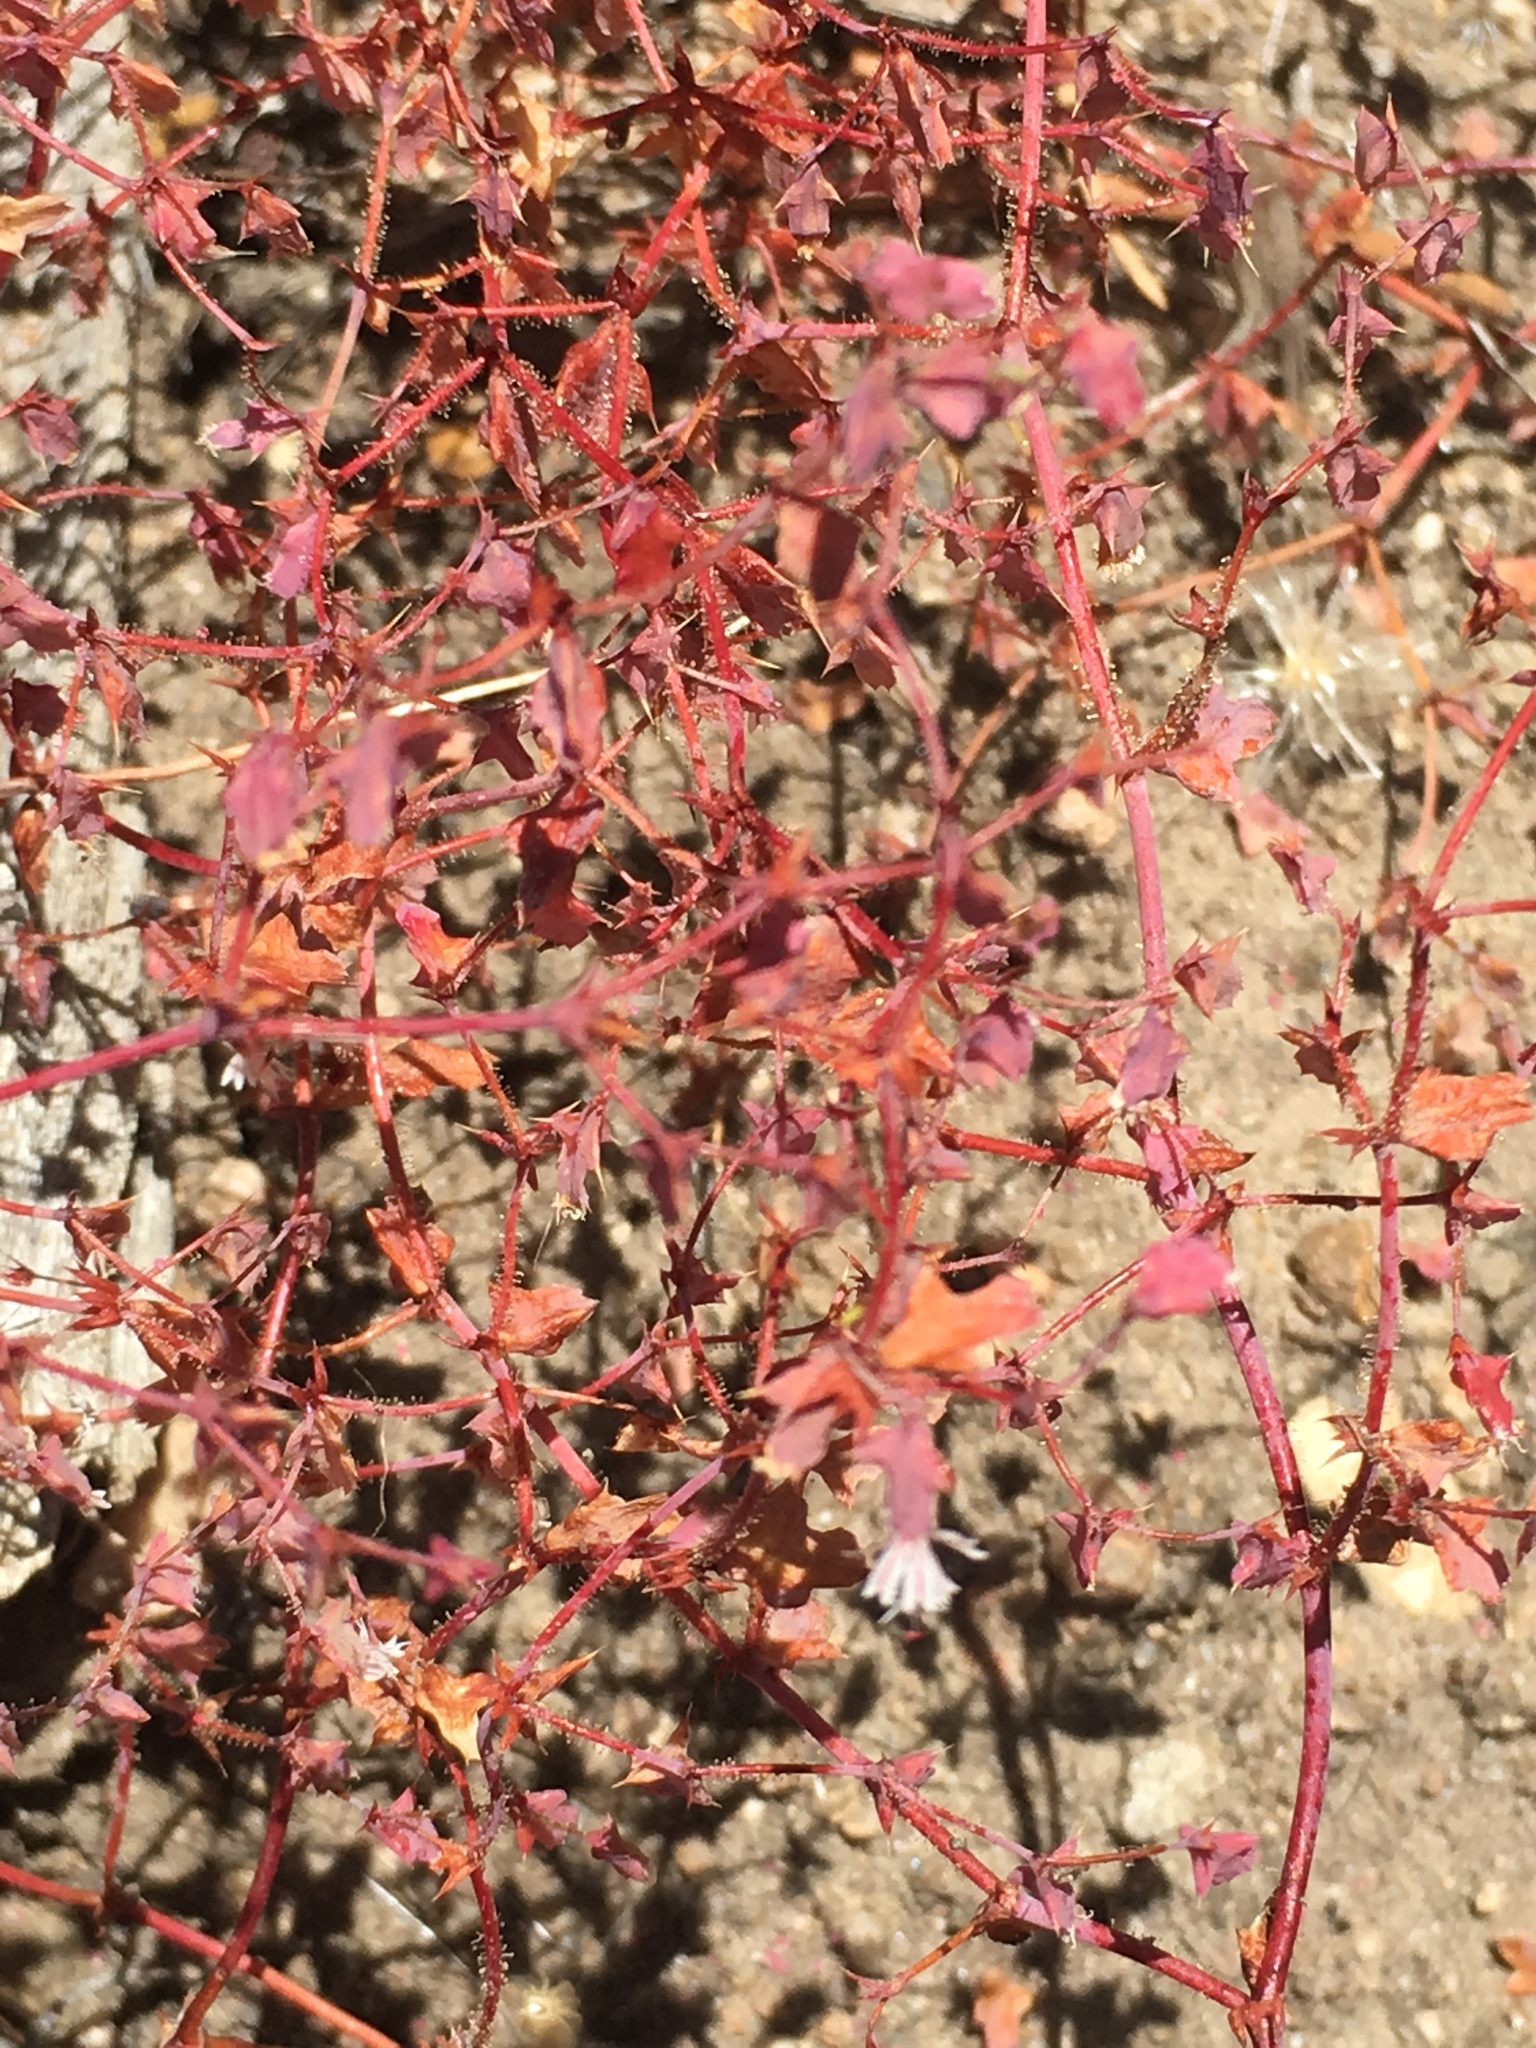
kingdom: Plantae
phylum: Tracheophyta
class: Magnoliopsida
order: Caryophyllales
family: Polygonaceae
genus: Centrostegia
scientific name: Centrostegia thurberi
